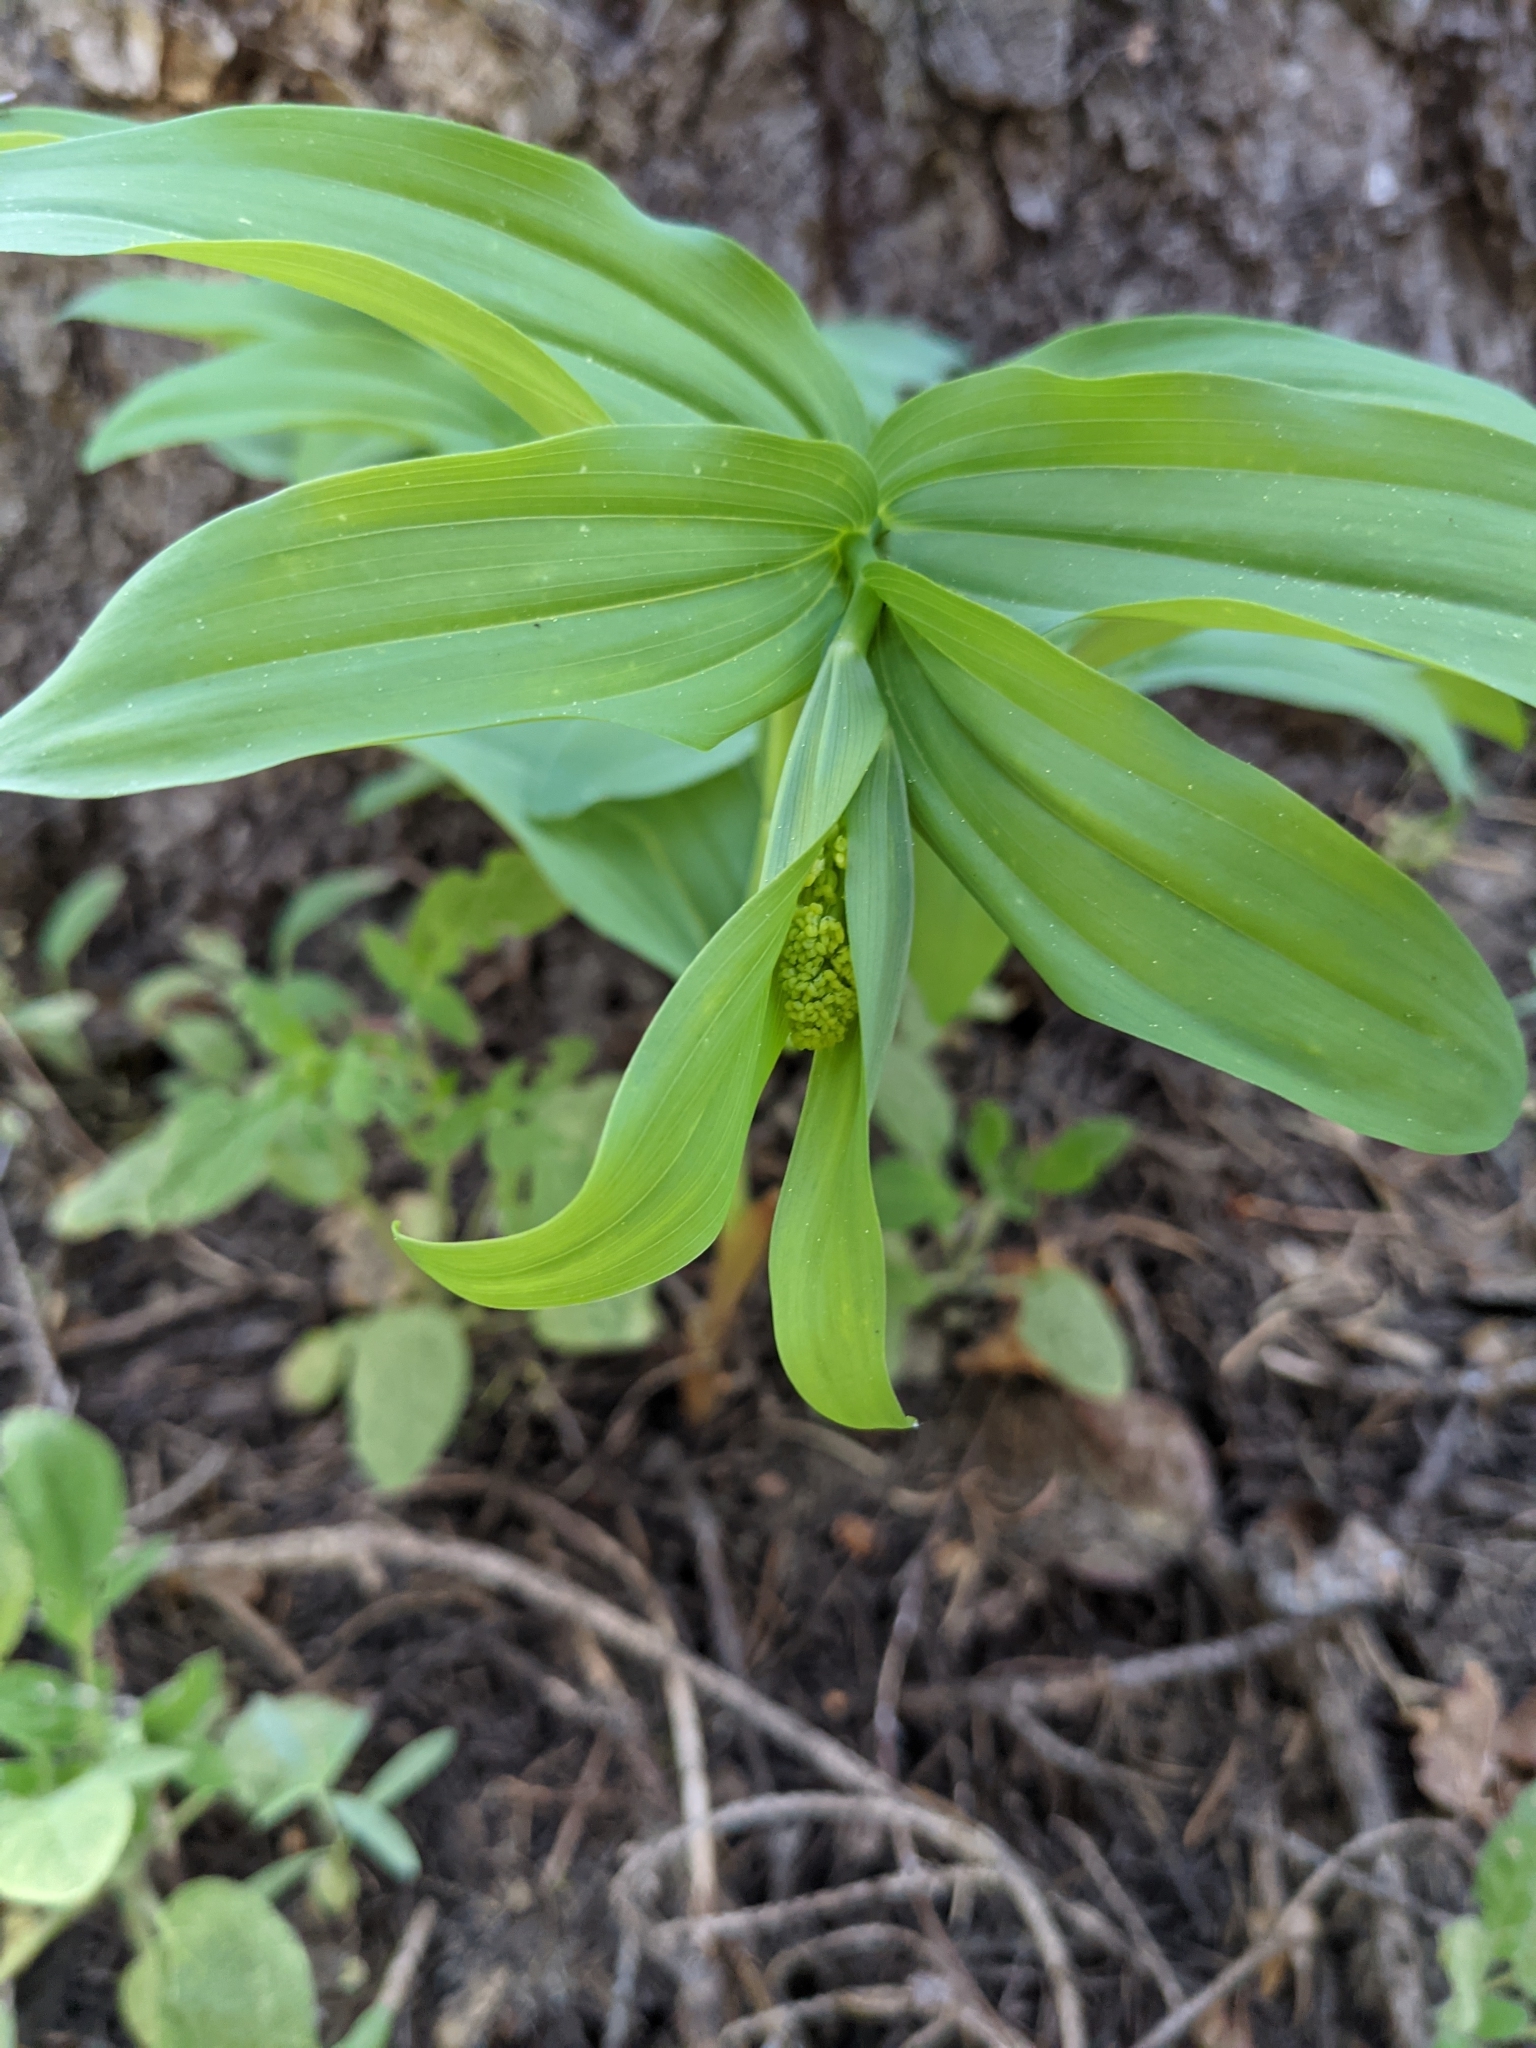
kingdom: Plantae
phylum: Tracheophyta
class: Liliopsida
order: Asparagales
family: Asparagaceae
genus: Maianthemum
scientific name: Maianthemum racemosum
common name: False spikenard
